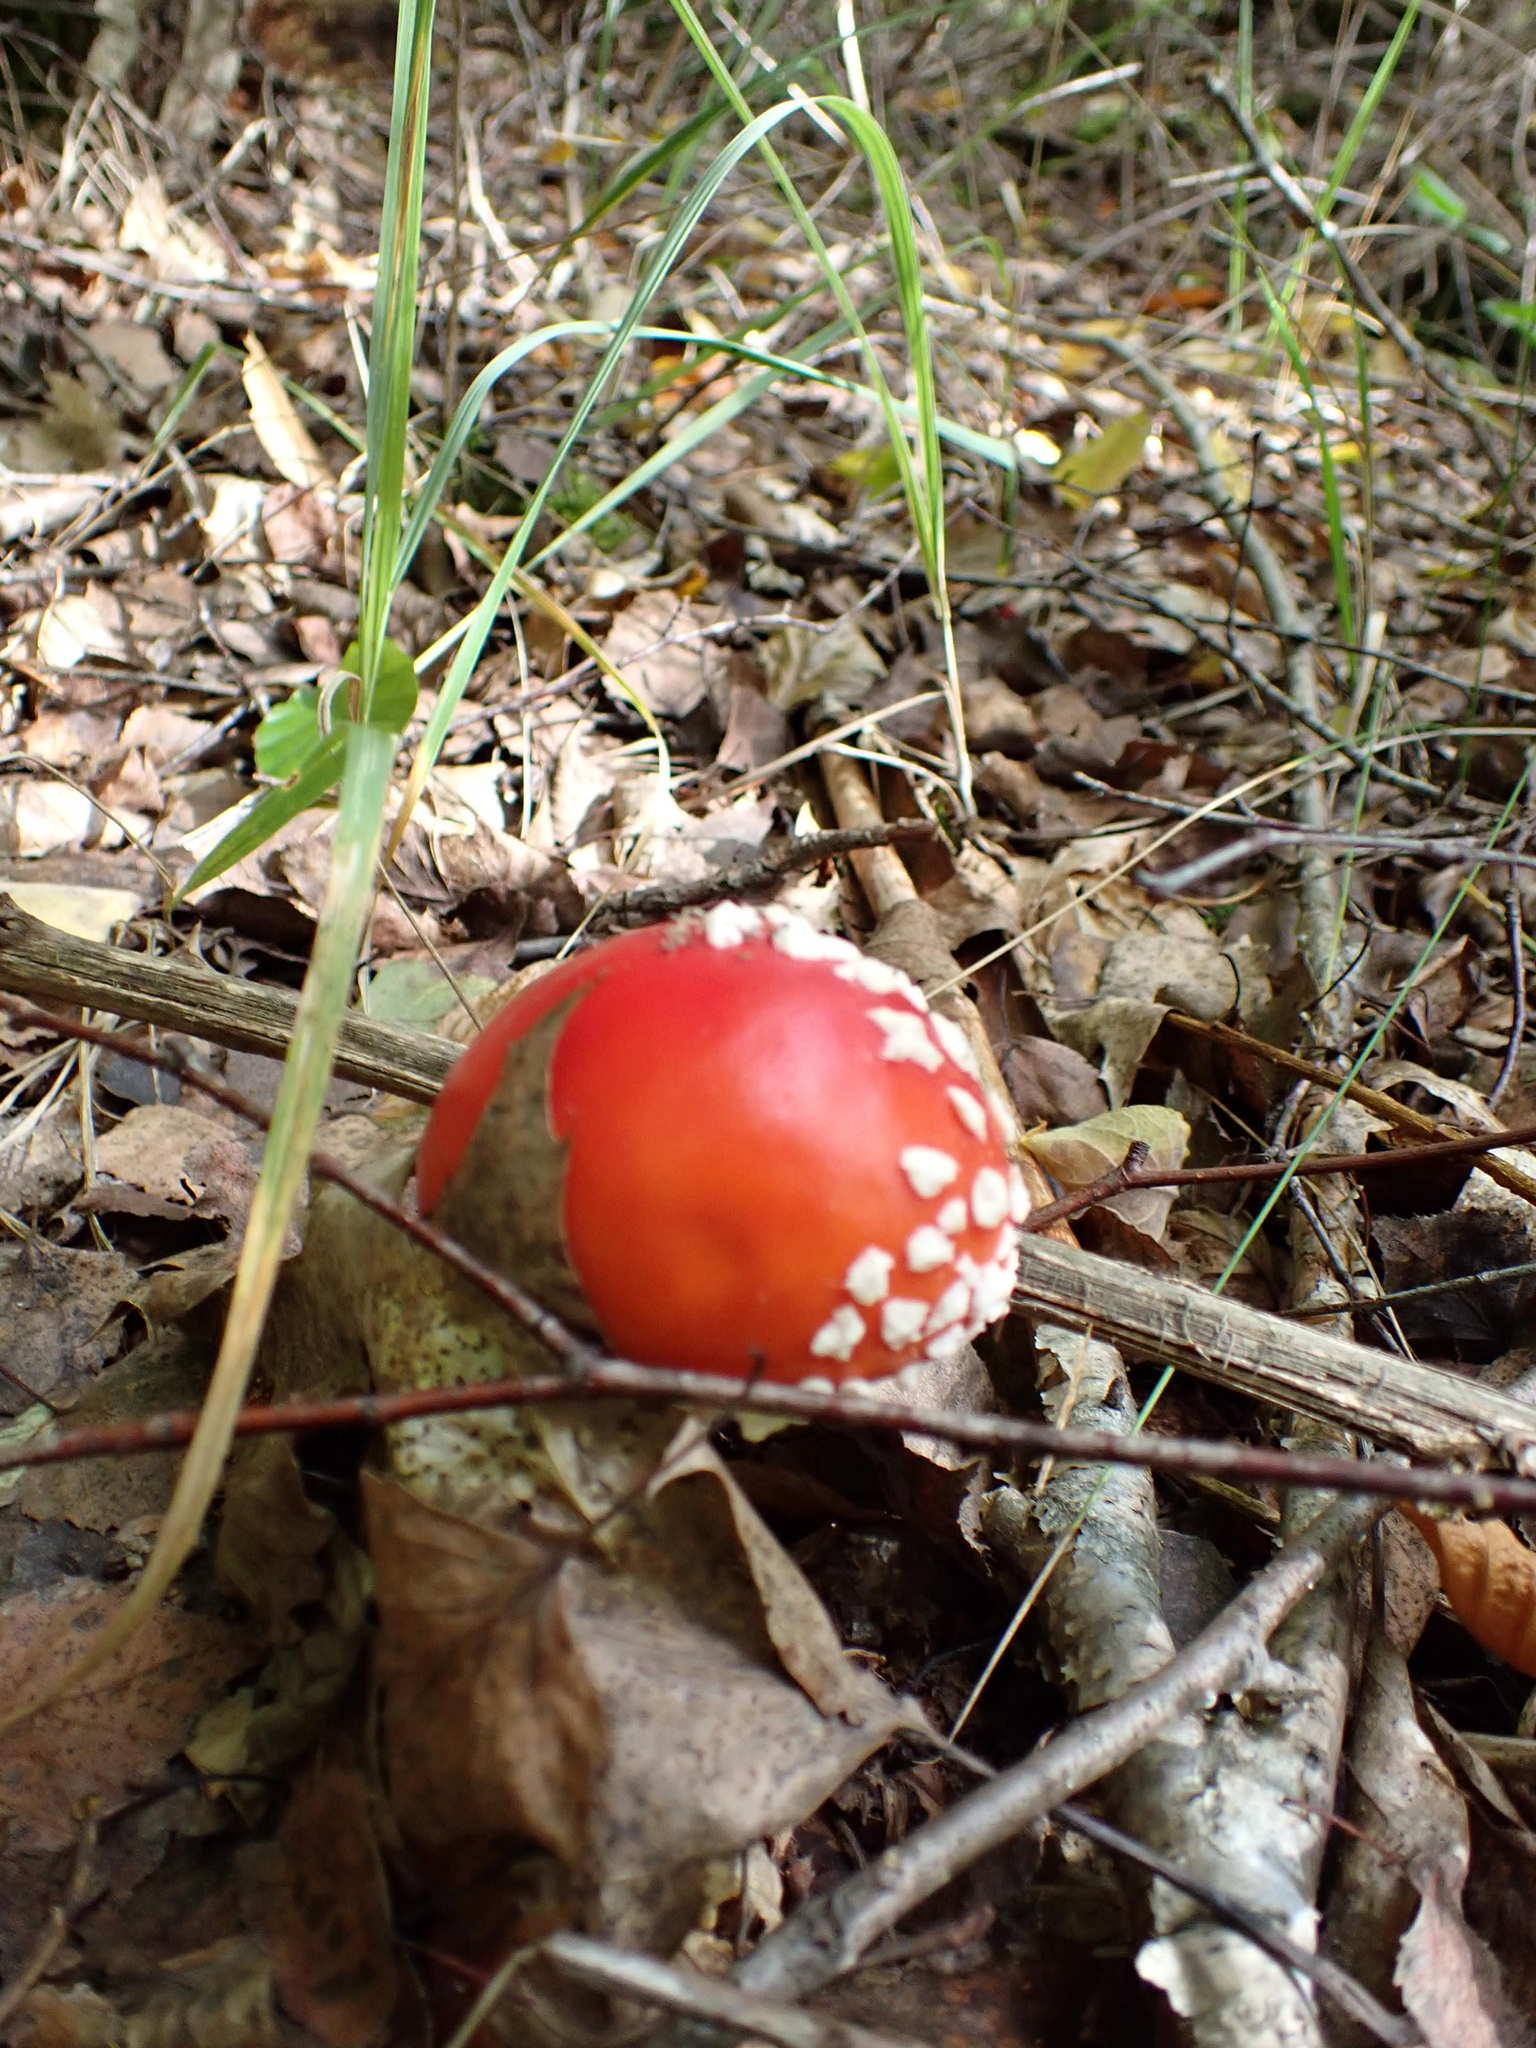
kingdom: Fungi
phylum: Basidiomycota
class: Agaricomycetes
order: Agaricales
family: Amanitaceae
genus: Amanita
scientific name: Amanita muscaria
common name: Fly agaric
